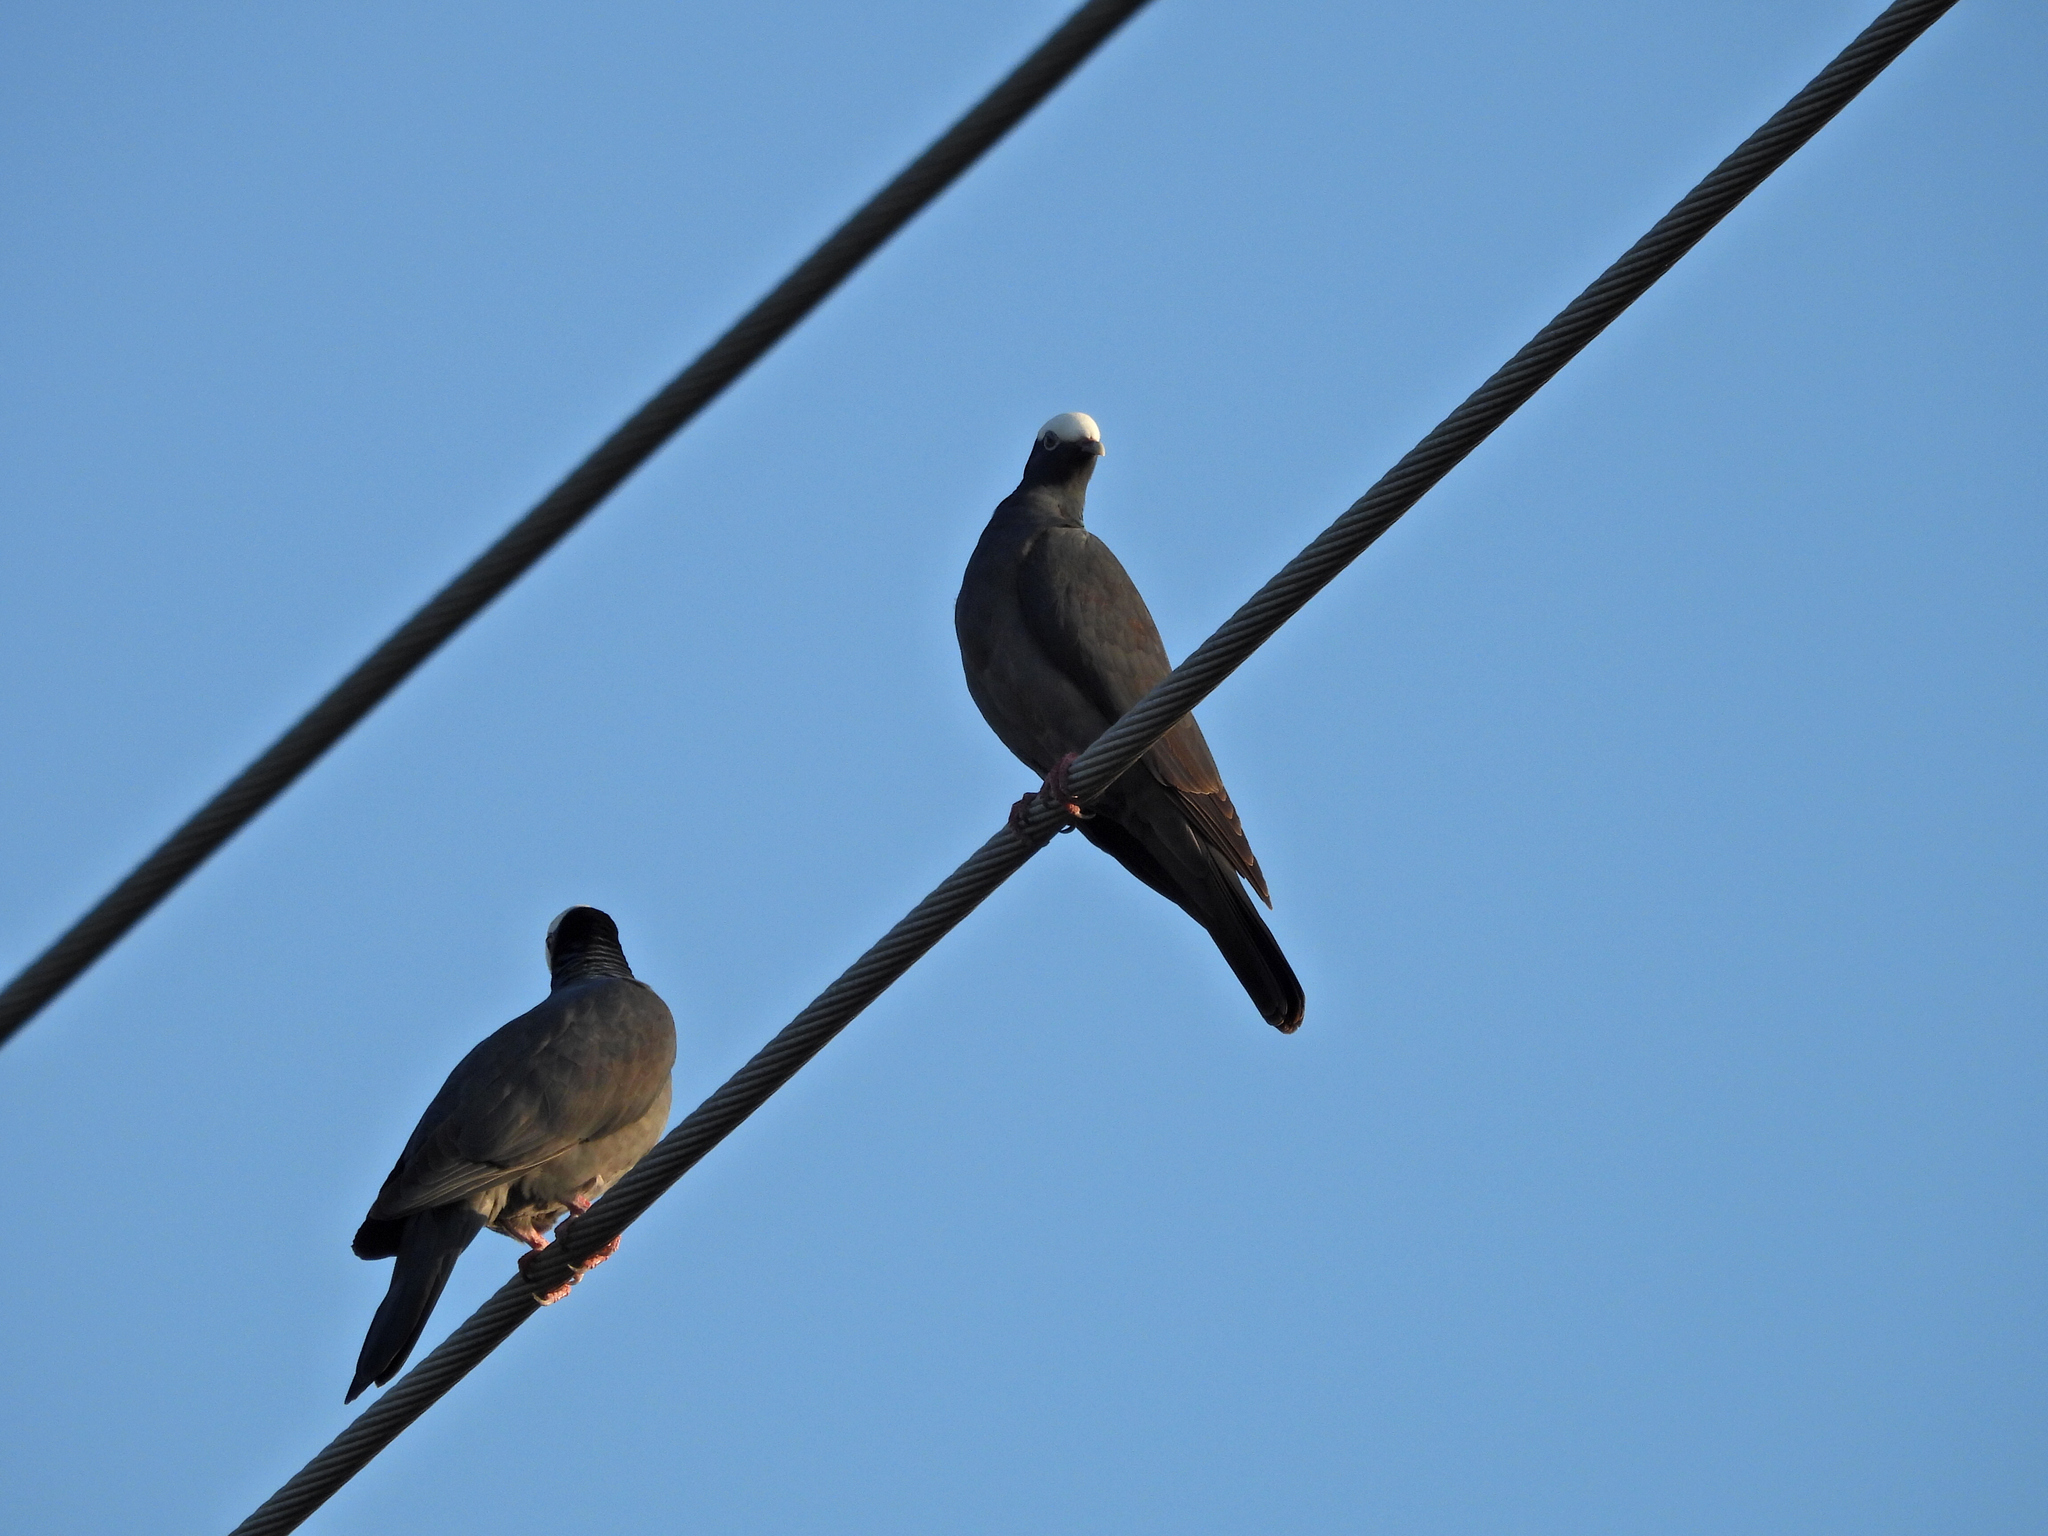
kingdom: Animalia
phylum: Chordata
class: Aves
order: Columbiformes
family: Columbidae
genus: Patagioenas
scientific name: Patagioenas leucocephala
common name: White-crowned pigeon
